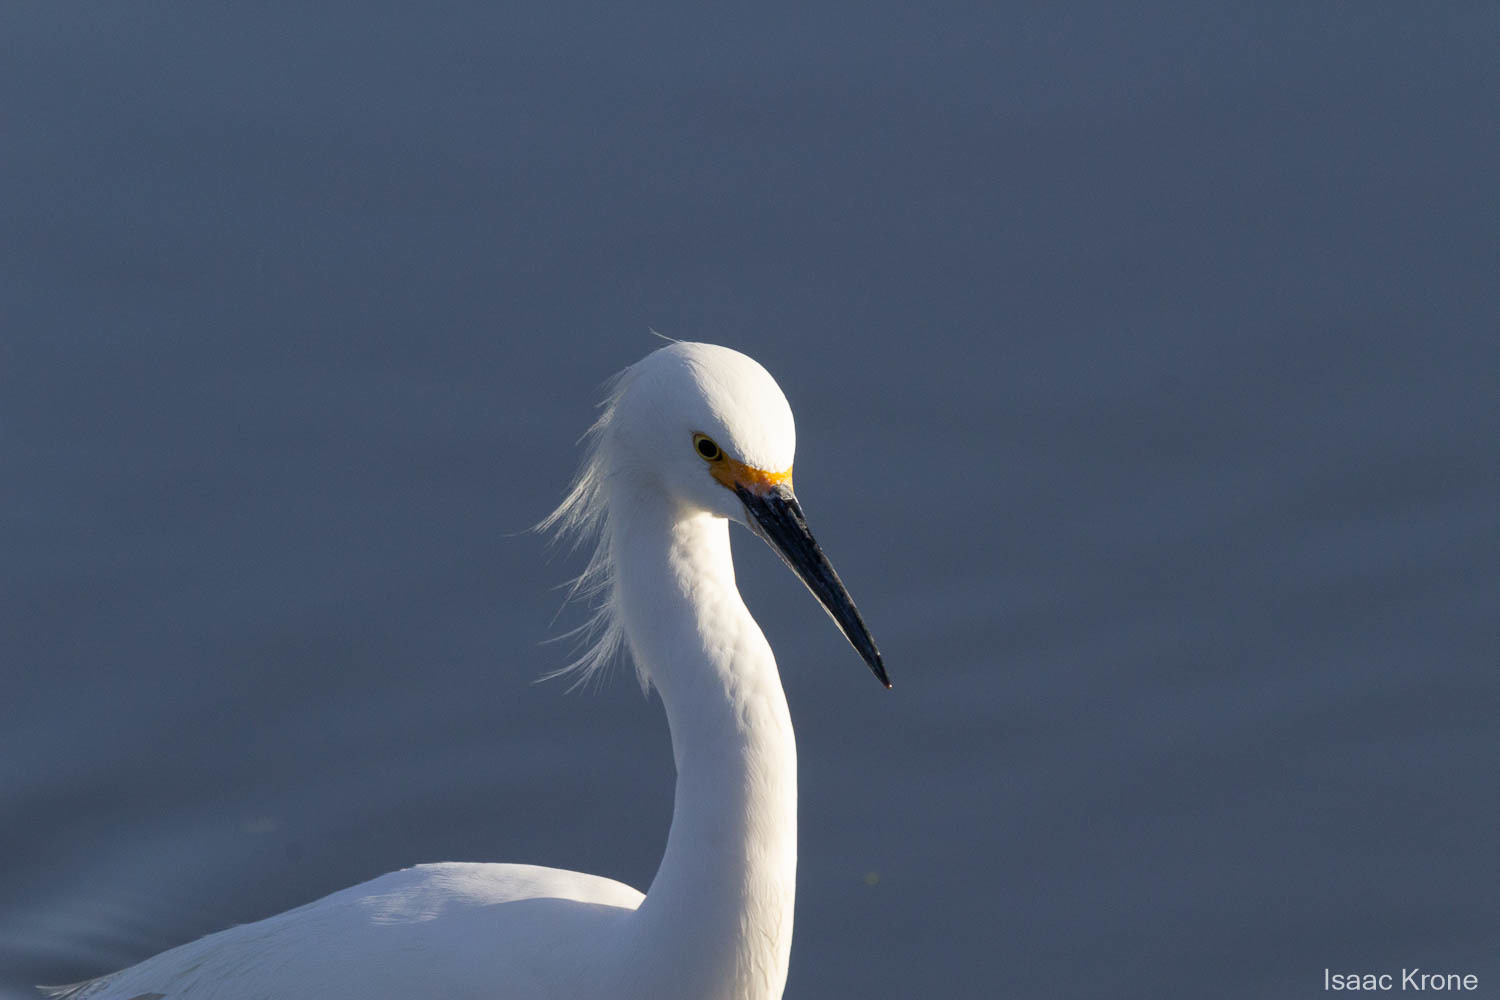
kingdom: Animalia
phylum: Chordata
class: Aves
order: Pelecaniformes
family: Ardeidae
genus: Egretta
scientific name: Egretta thula
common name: Snowy egret
